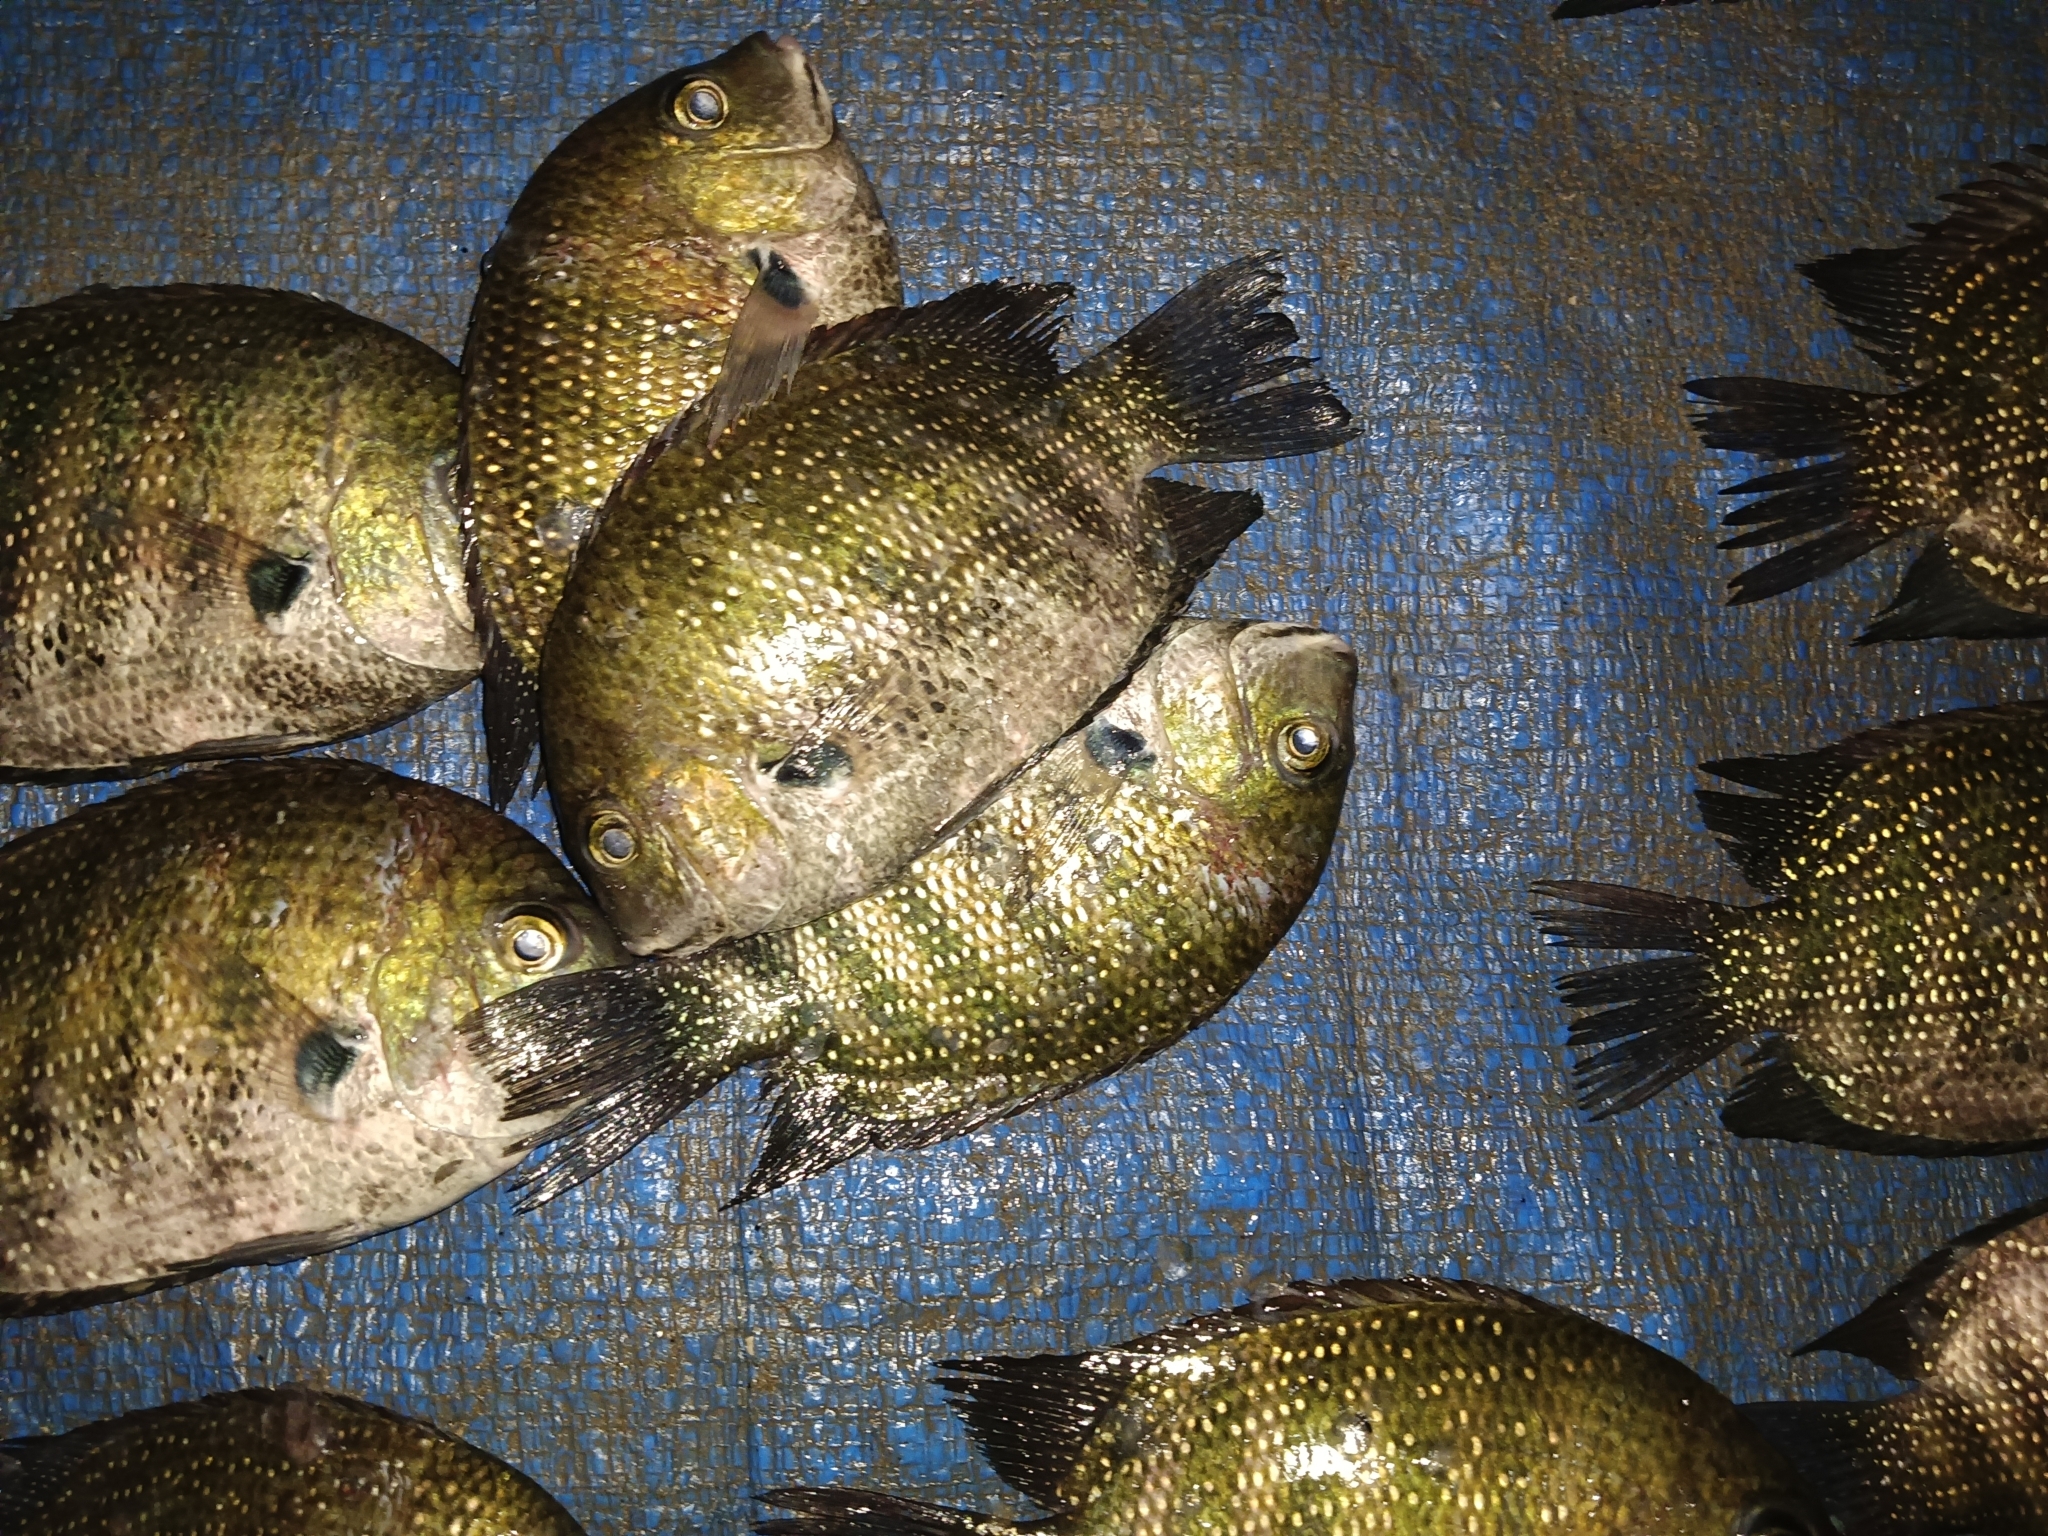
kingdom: Animalia
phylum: Chordata
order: Perciformes
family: Cichlidae
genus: Etroplus
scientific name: Etroplus suratensis
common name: Green chromide
